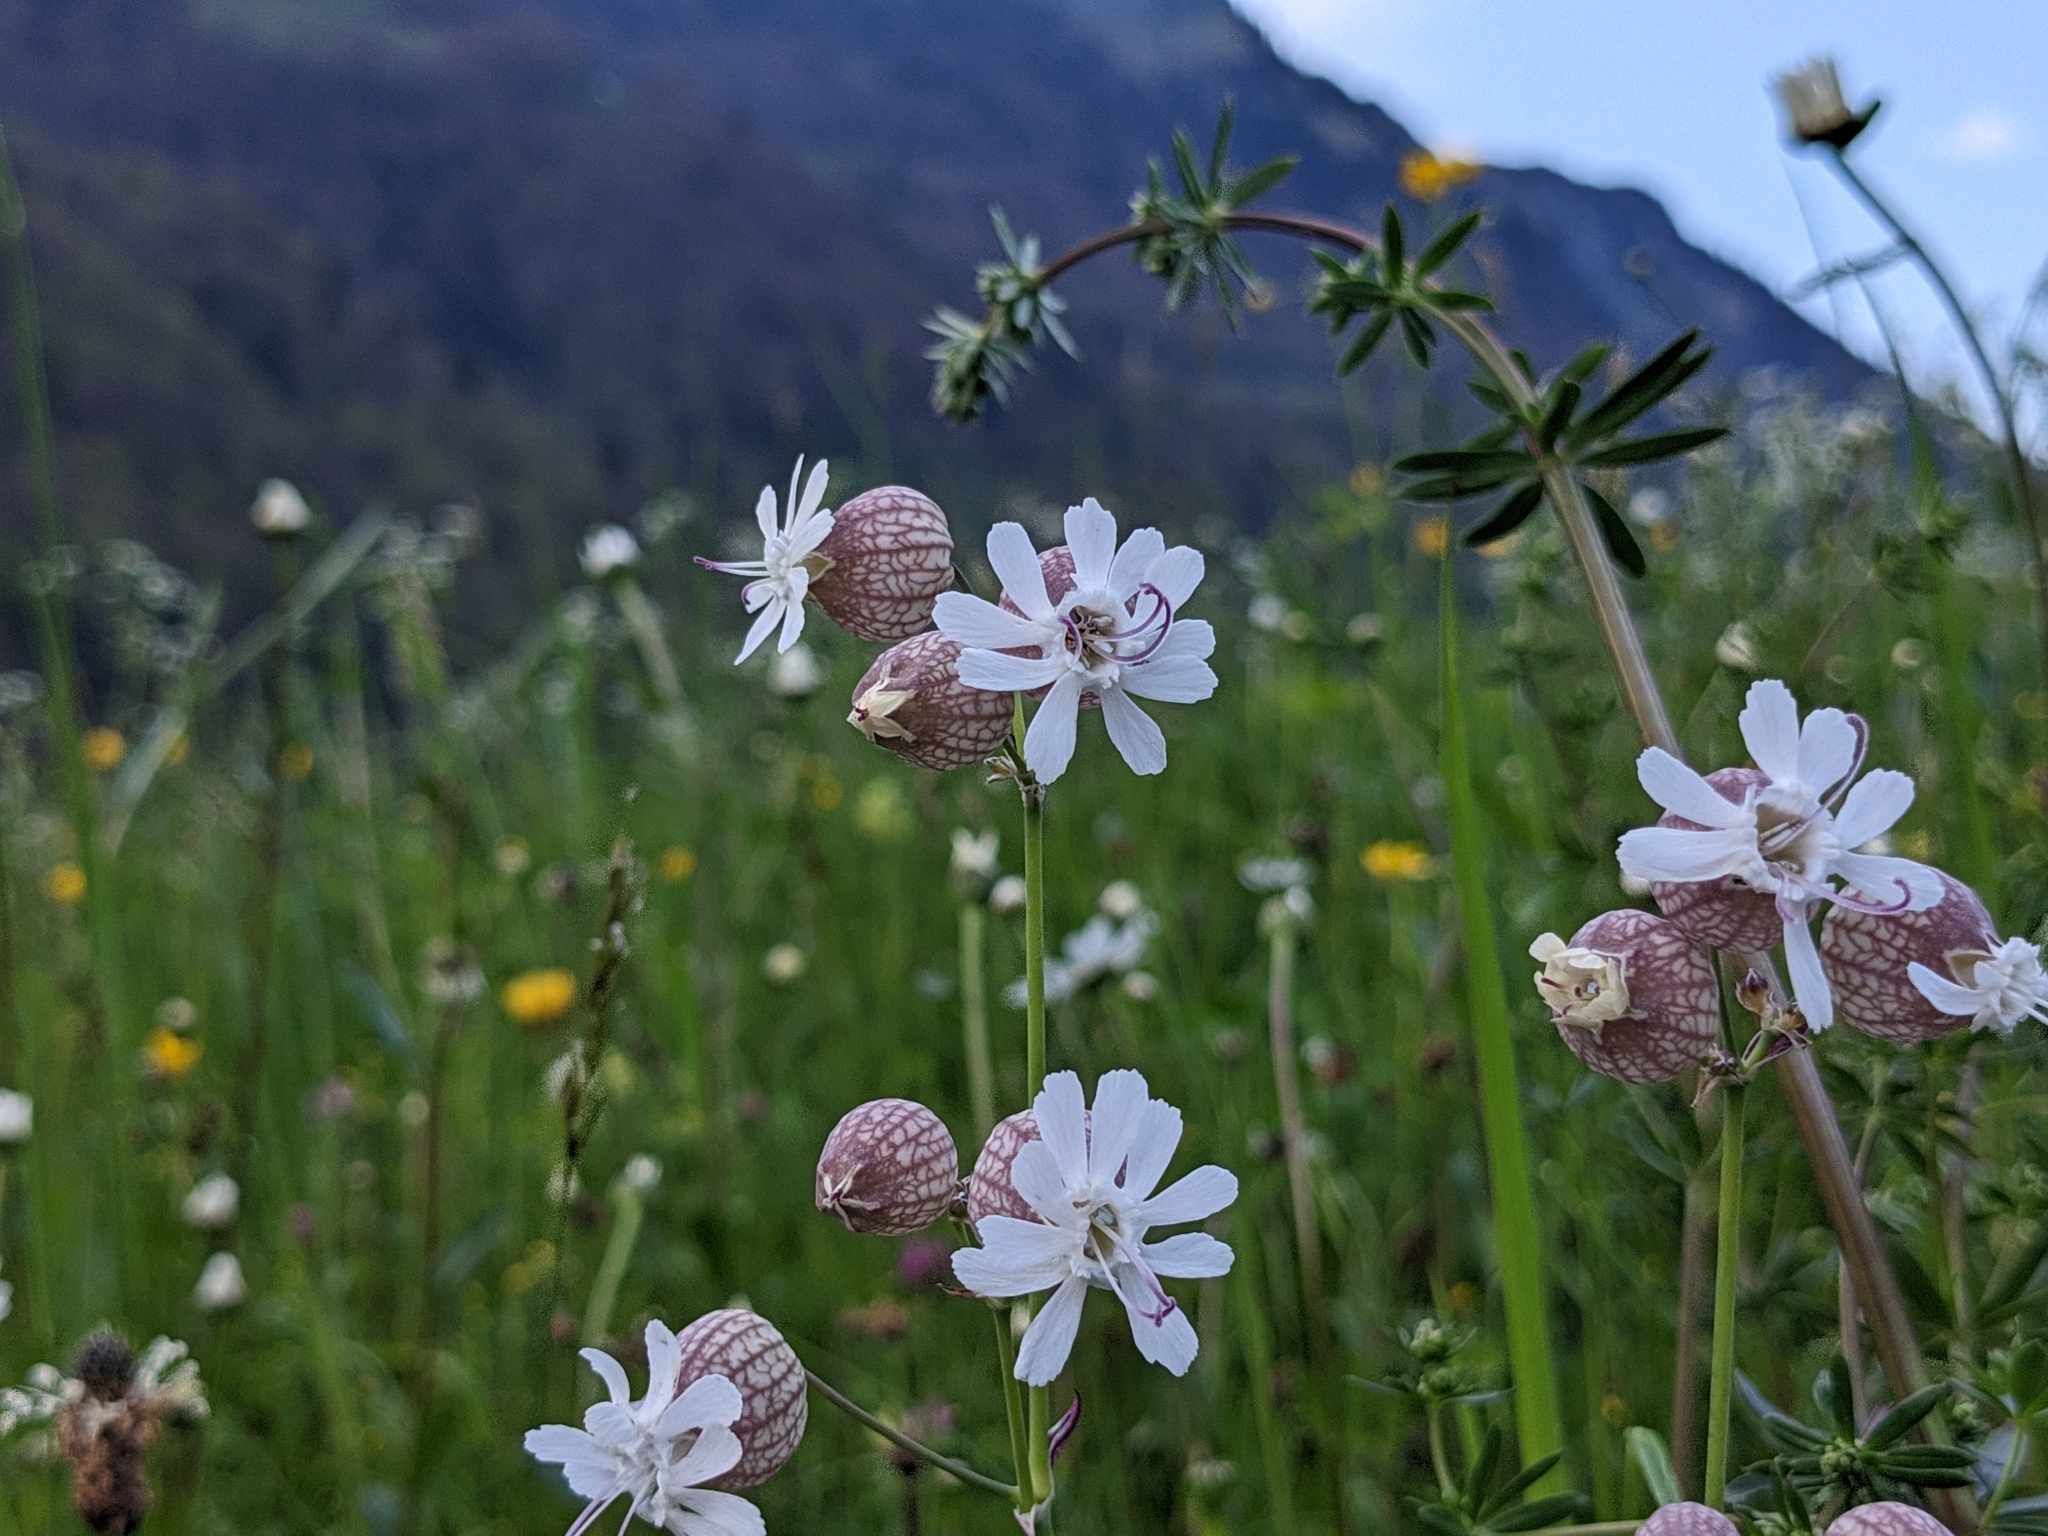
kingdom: Plantae
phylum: Tracheophyta
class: Magnoliopsida
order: Caryophyllales
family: Caryophyllaceae
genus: Silene
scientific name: Silene vulgaris
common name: Bladder campion
